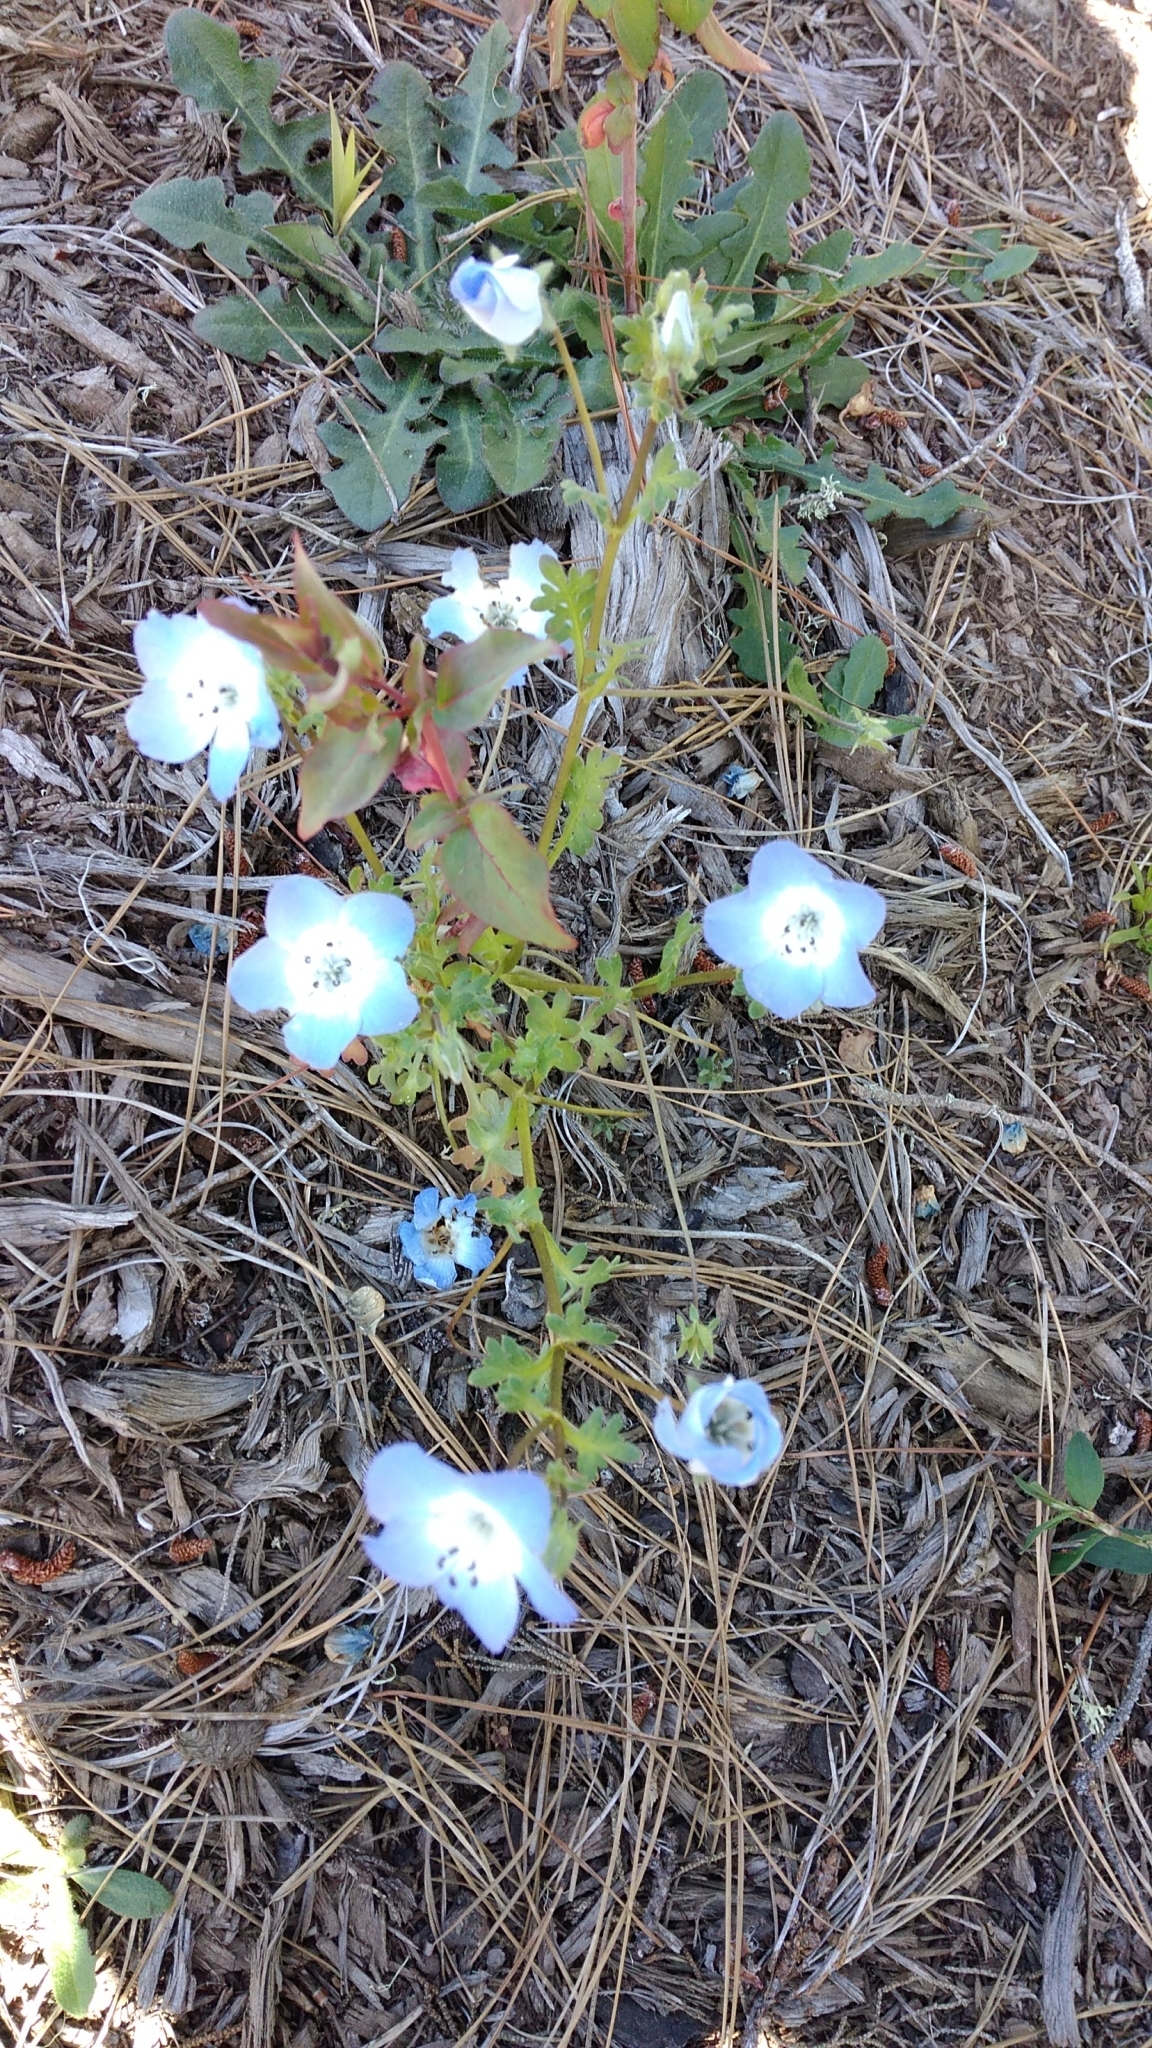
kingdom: Plantae
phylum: Tracheophyta
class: Magnoliopsida
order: Boraginales
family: Hydrophyllaceae
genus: Nemophila
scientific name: Nemophila menziesii
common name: Baby's-blue-eyes
